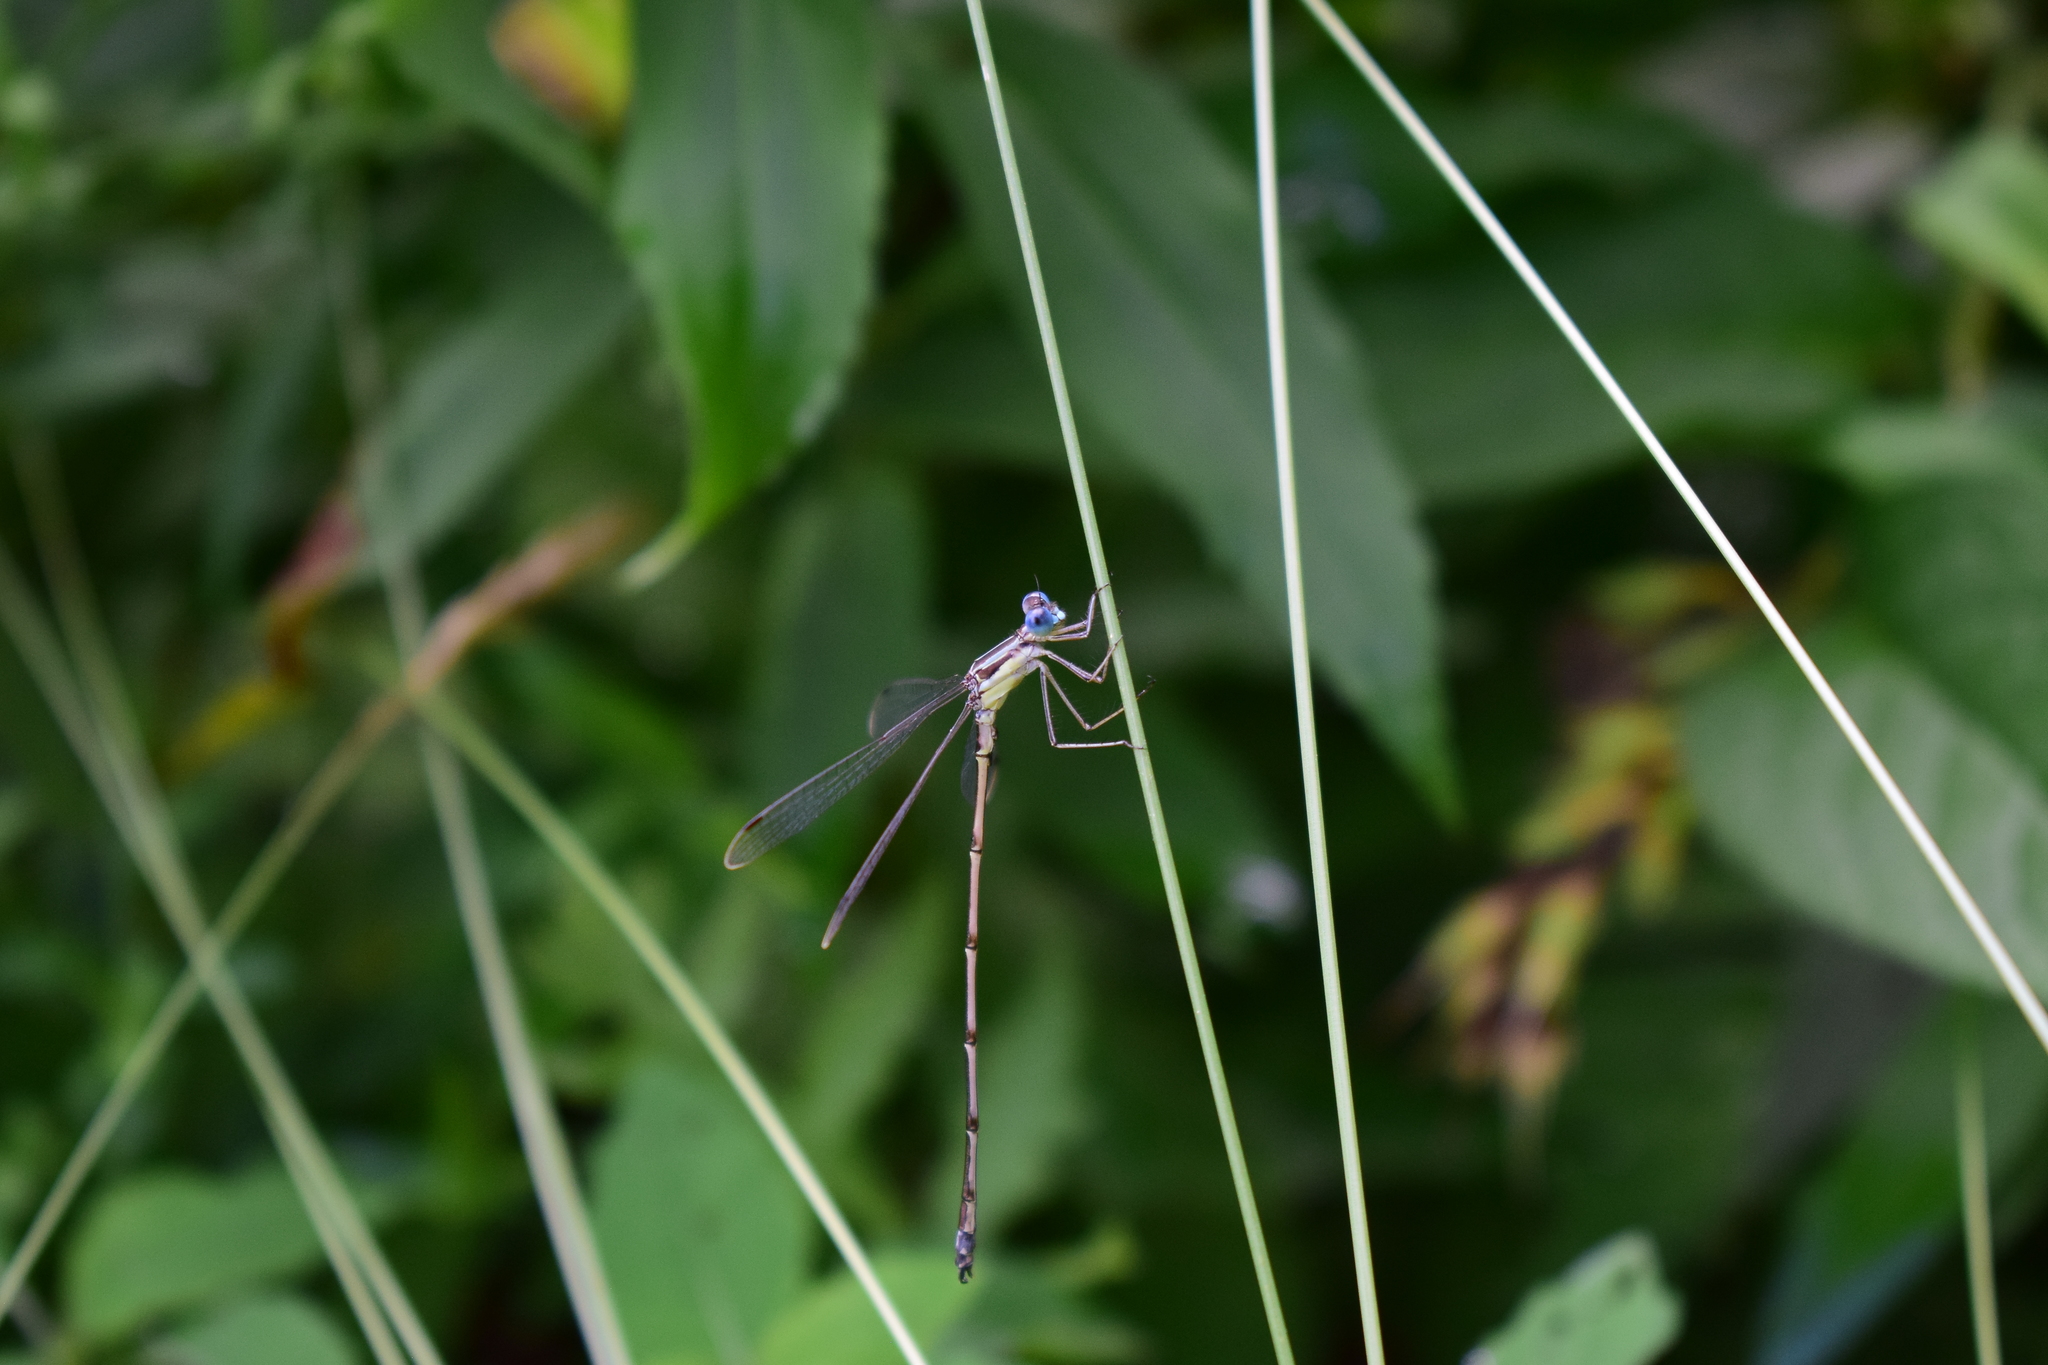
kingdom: Animalia
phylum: Arthropoda
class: Insecta
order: Odonata
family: Lestidae
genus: Lestes
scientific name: Lestes rectangularis
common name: Slender spreadwing
